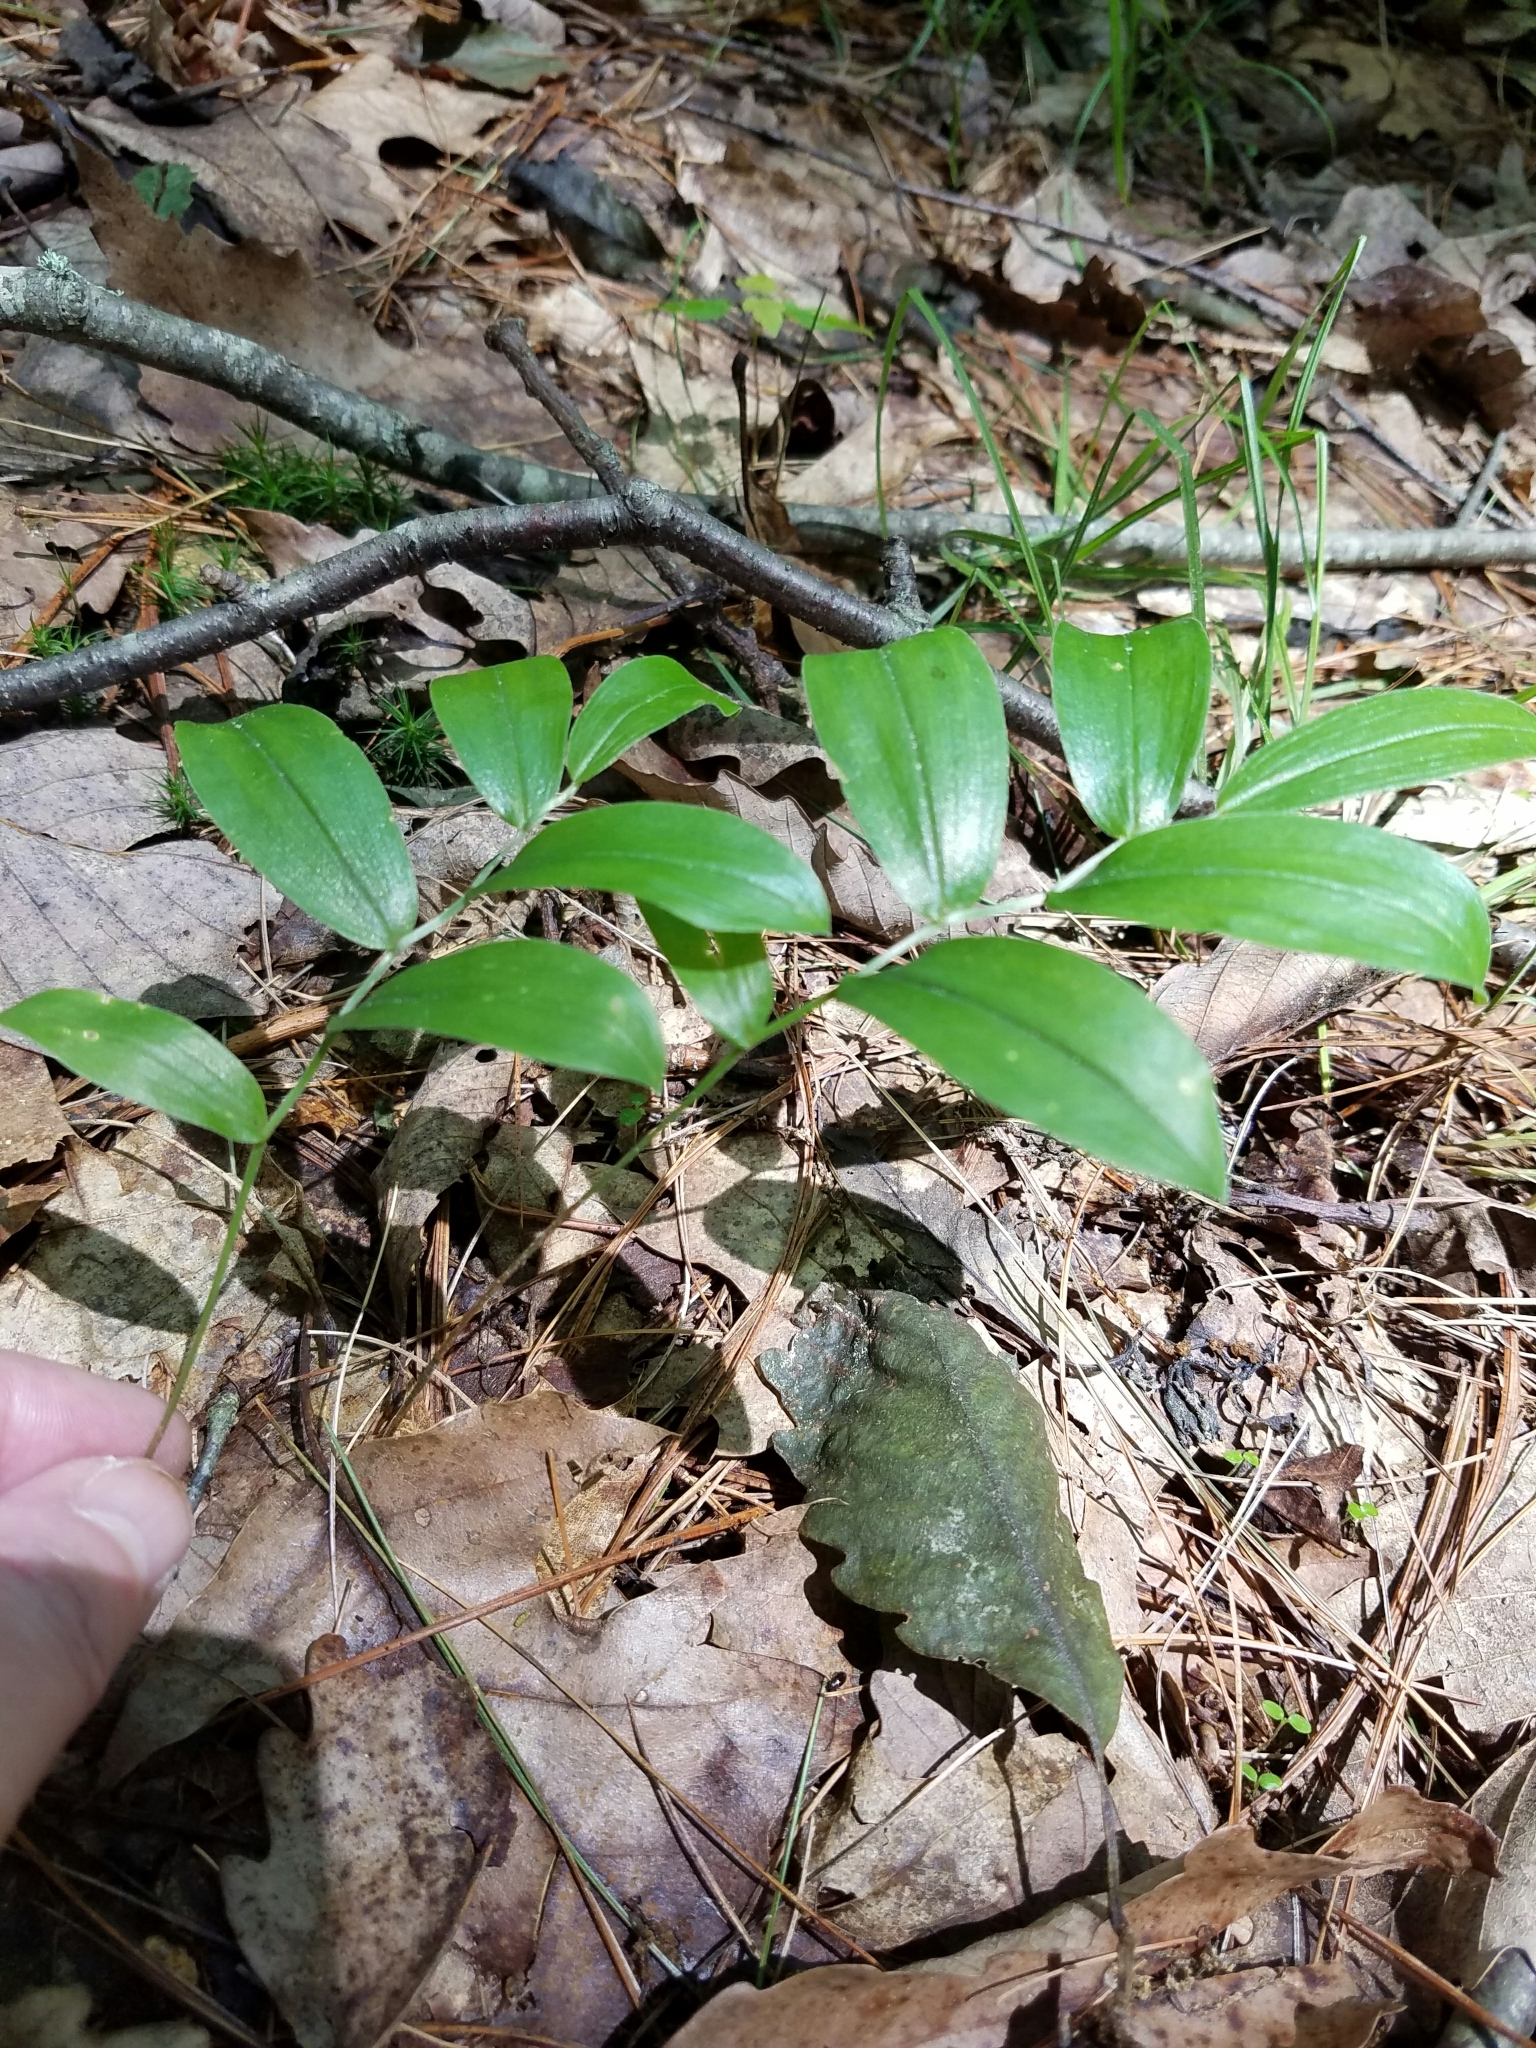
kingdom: Plantae
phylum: Tracheophyta
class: Liliopsida
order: Liliales
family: Colchicaceae
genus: Uvularia
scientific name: Uvularia puberula
